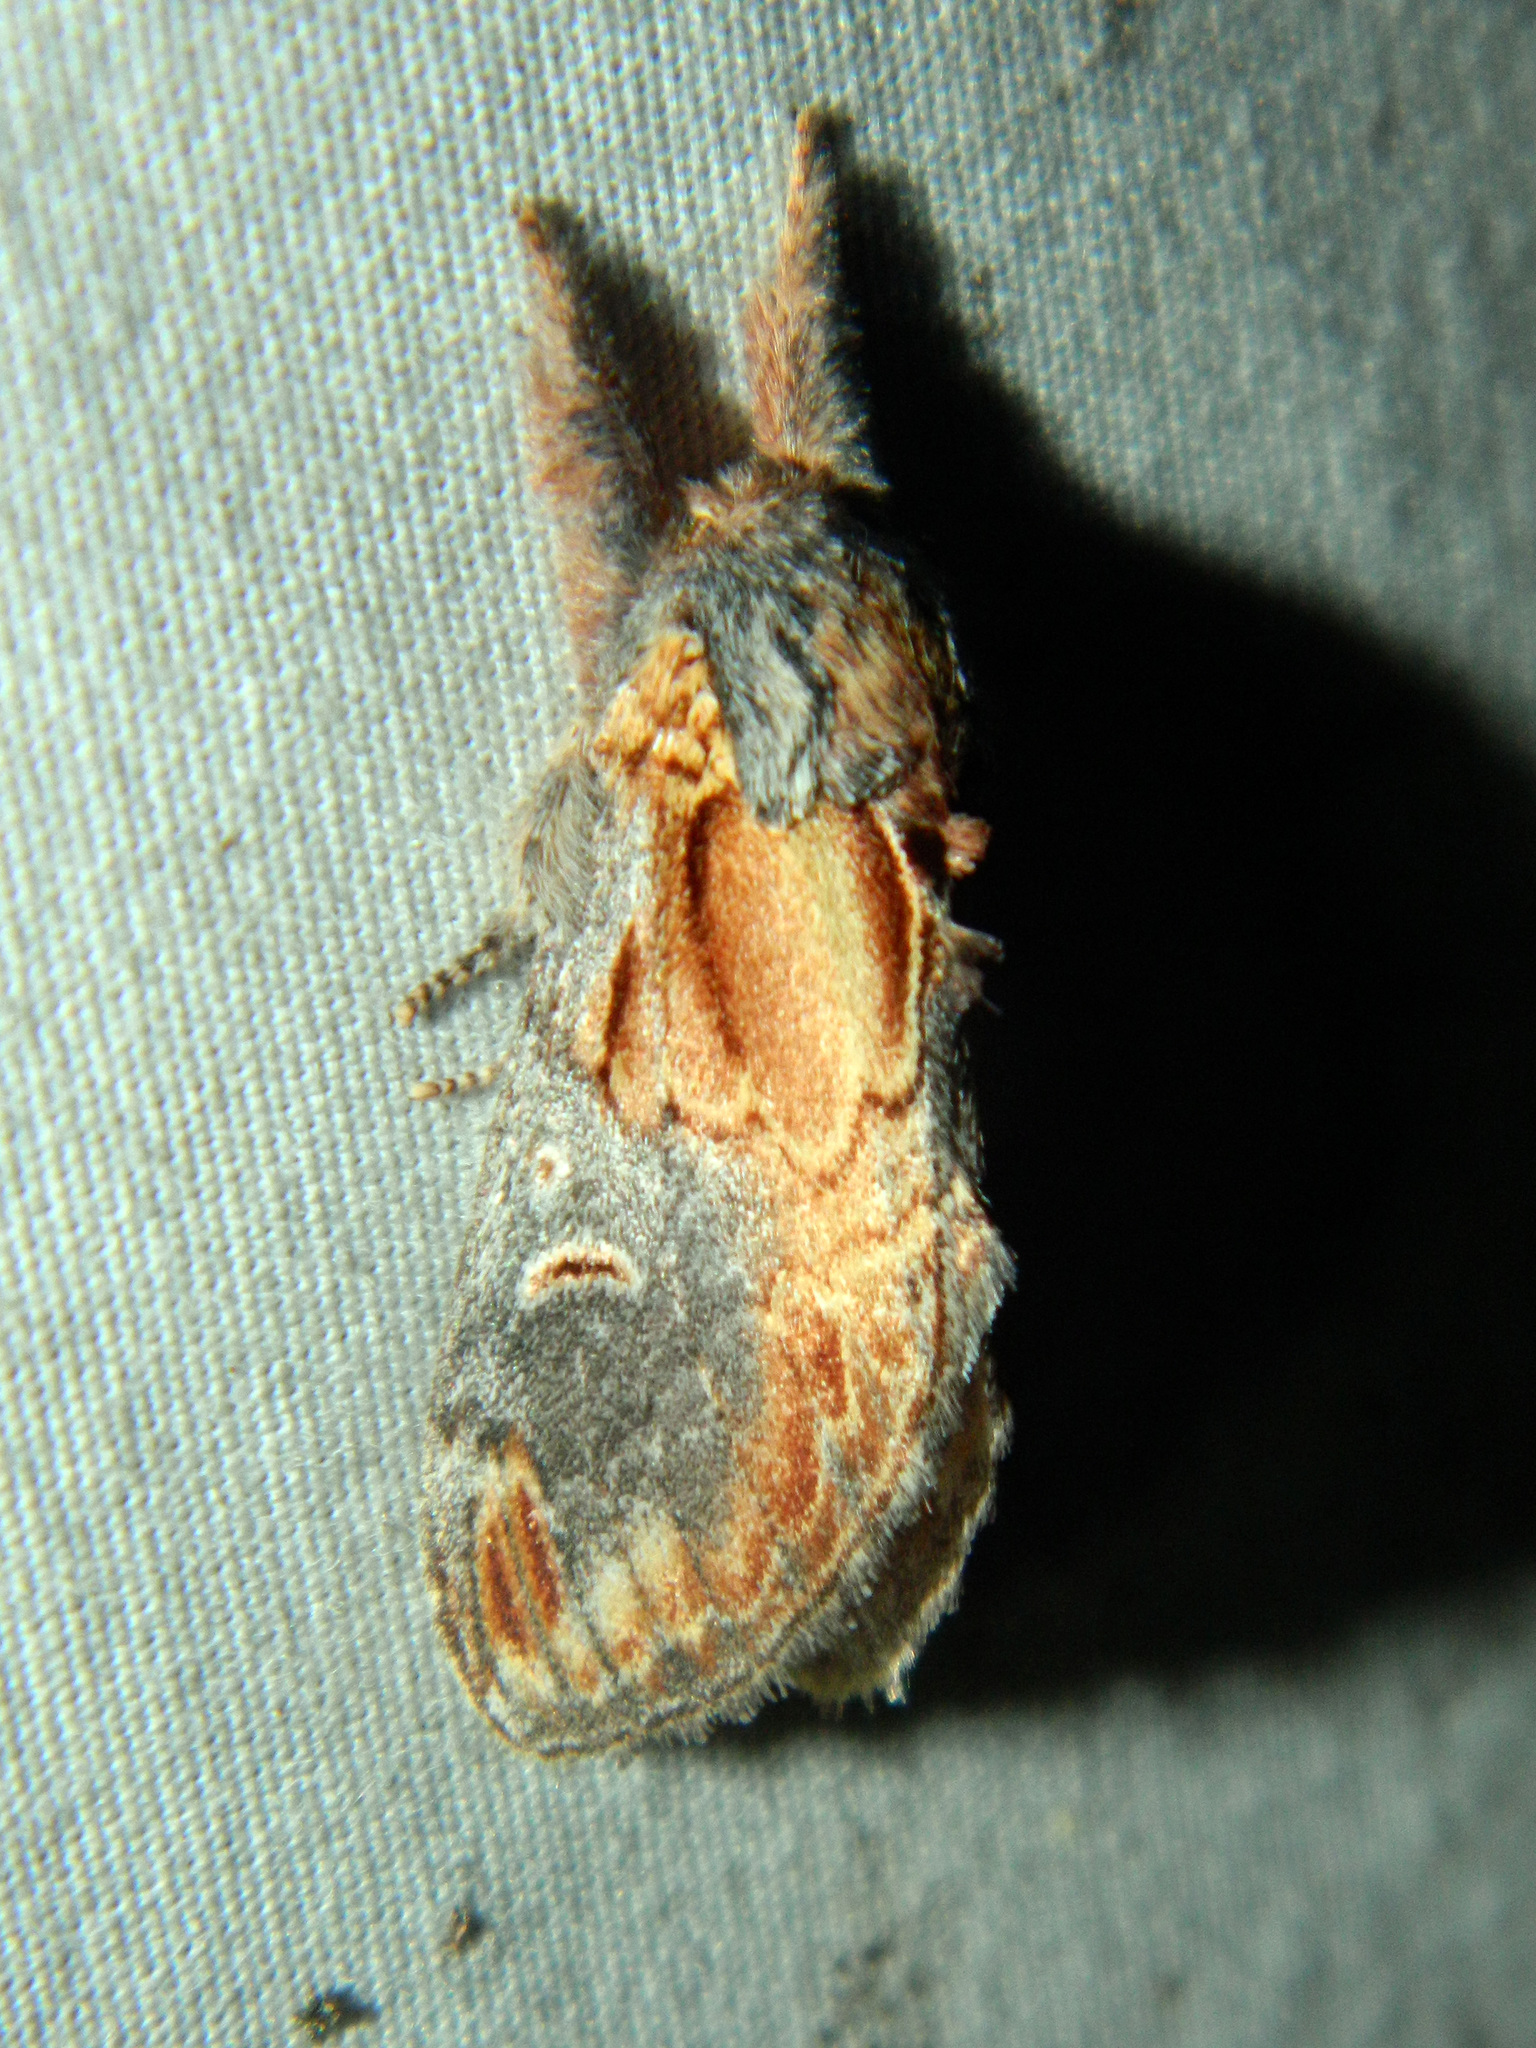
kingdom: Animalia
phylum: Arthropoda
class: Insecta
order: Lepidoptera
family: Notodontidae
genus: Notodonta
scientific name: Notodonta scitipennis
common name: Finned-willow prominent moth
